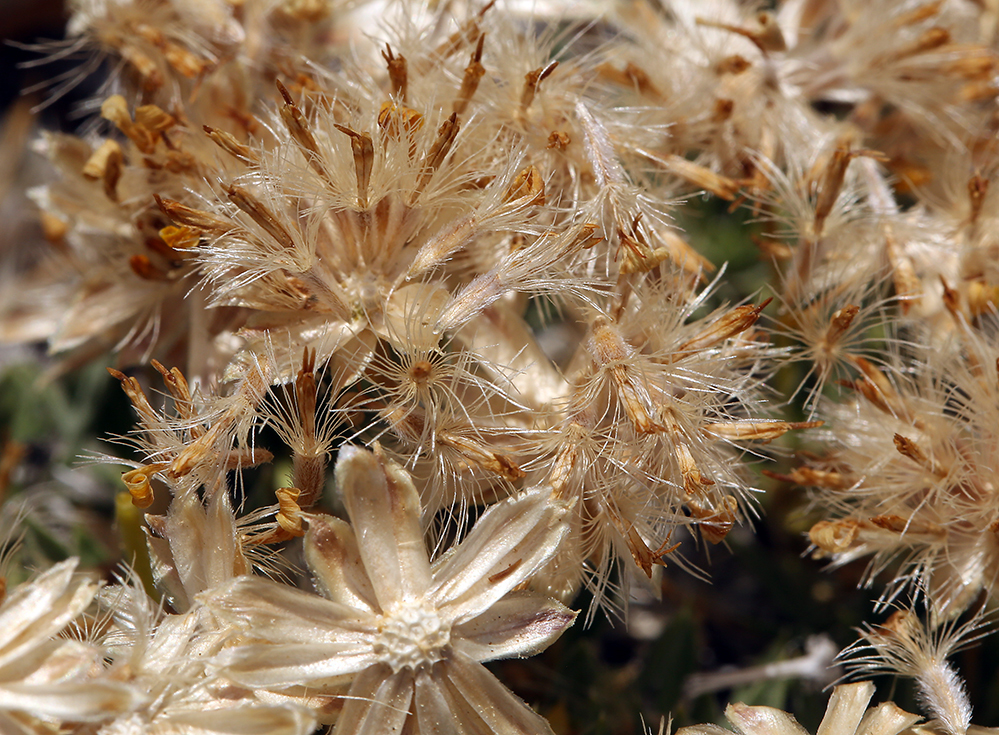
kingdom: Plantae
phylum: Tracheophyta
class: Magnoliopsida
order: Asterales
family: Asteraceae
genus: Stenotus
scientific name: Stenotus acaulis
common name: Stemless goldenweed
